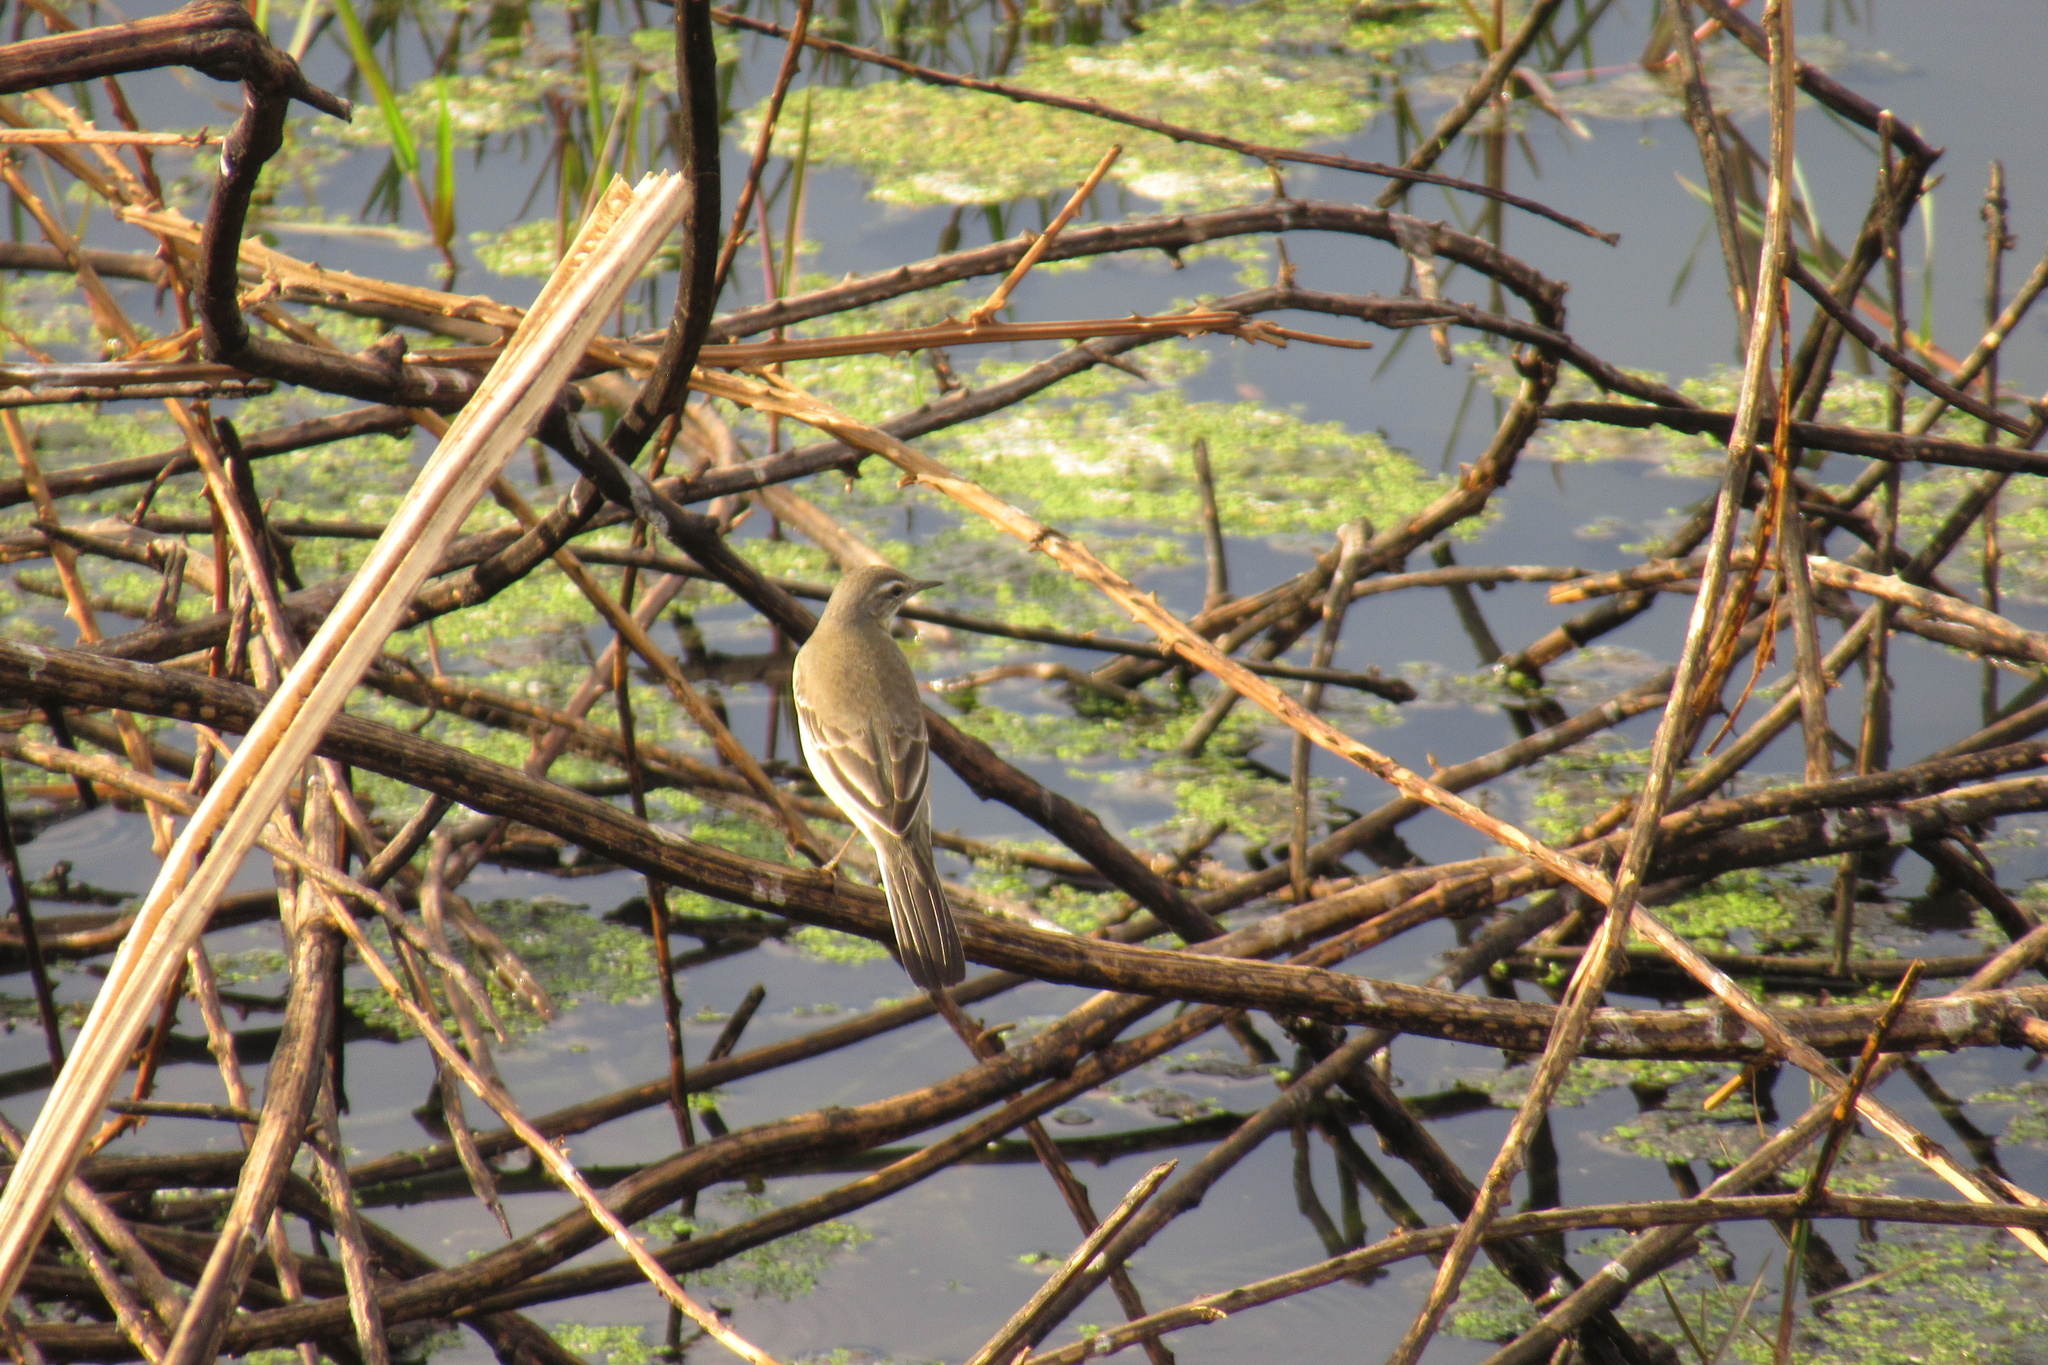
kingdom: Animalia
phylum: Chordata
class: Aves
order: Passeriformes
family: Motacillidae
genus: Motacilla
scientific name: Motacilla flava
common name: Western yellow wagtail
